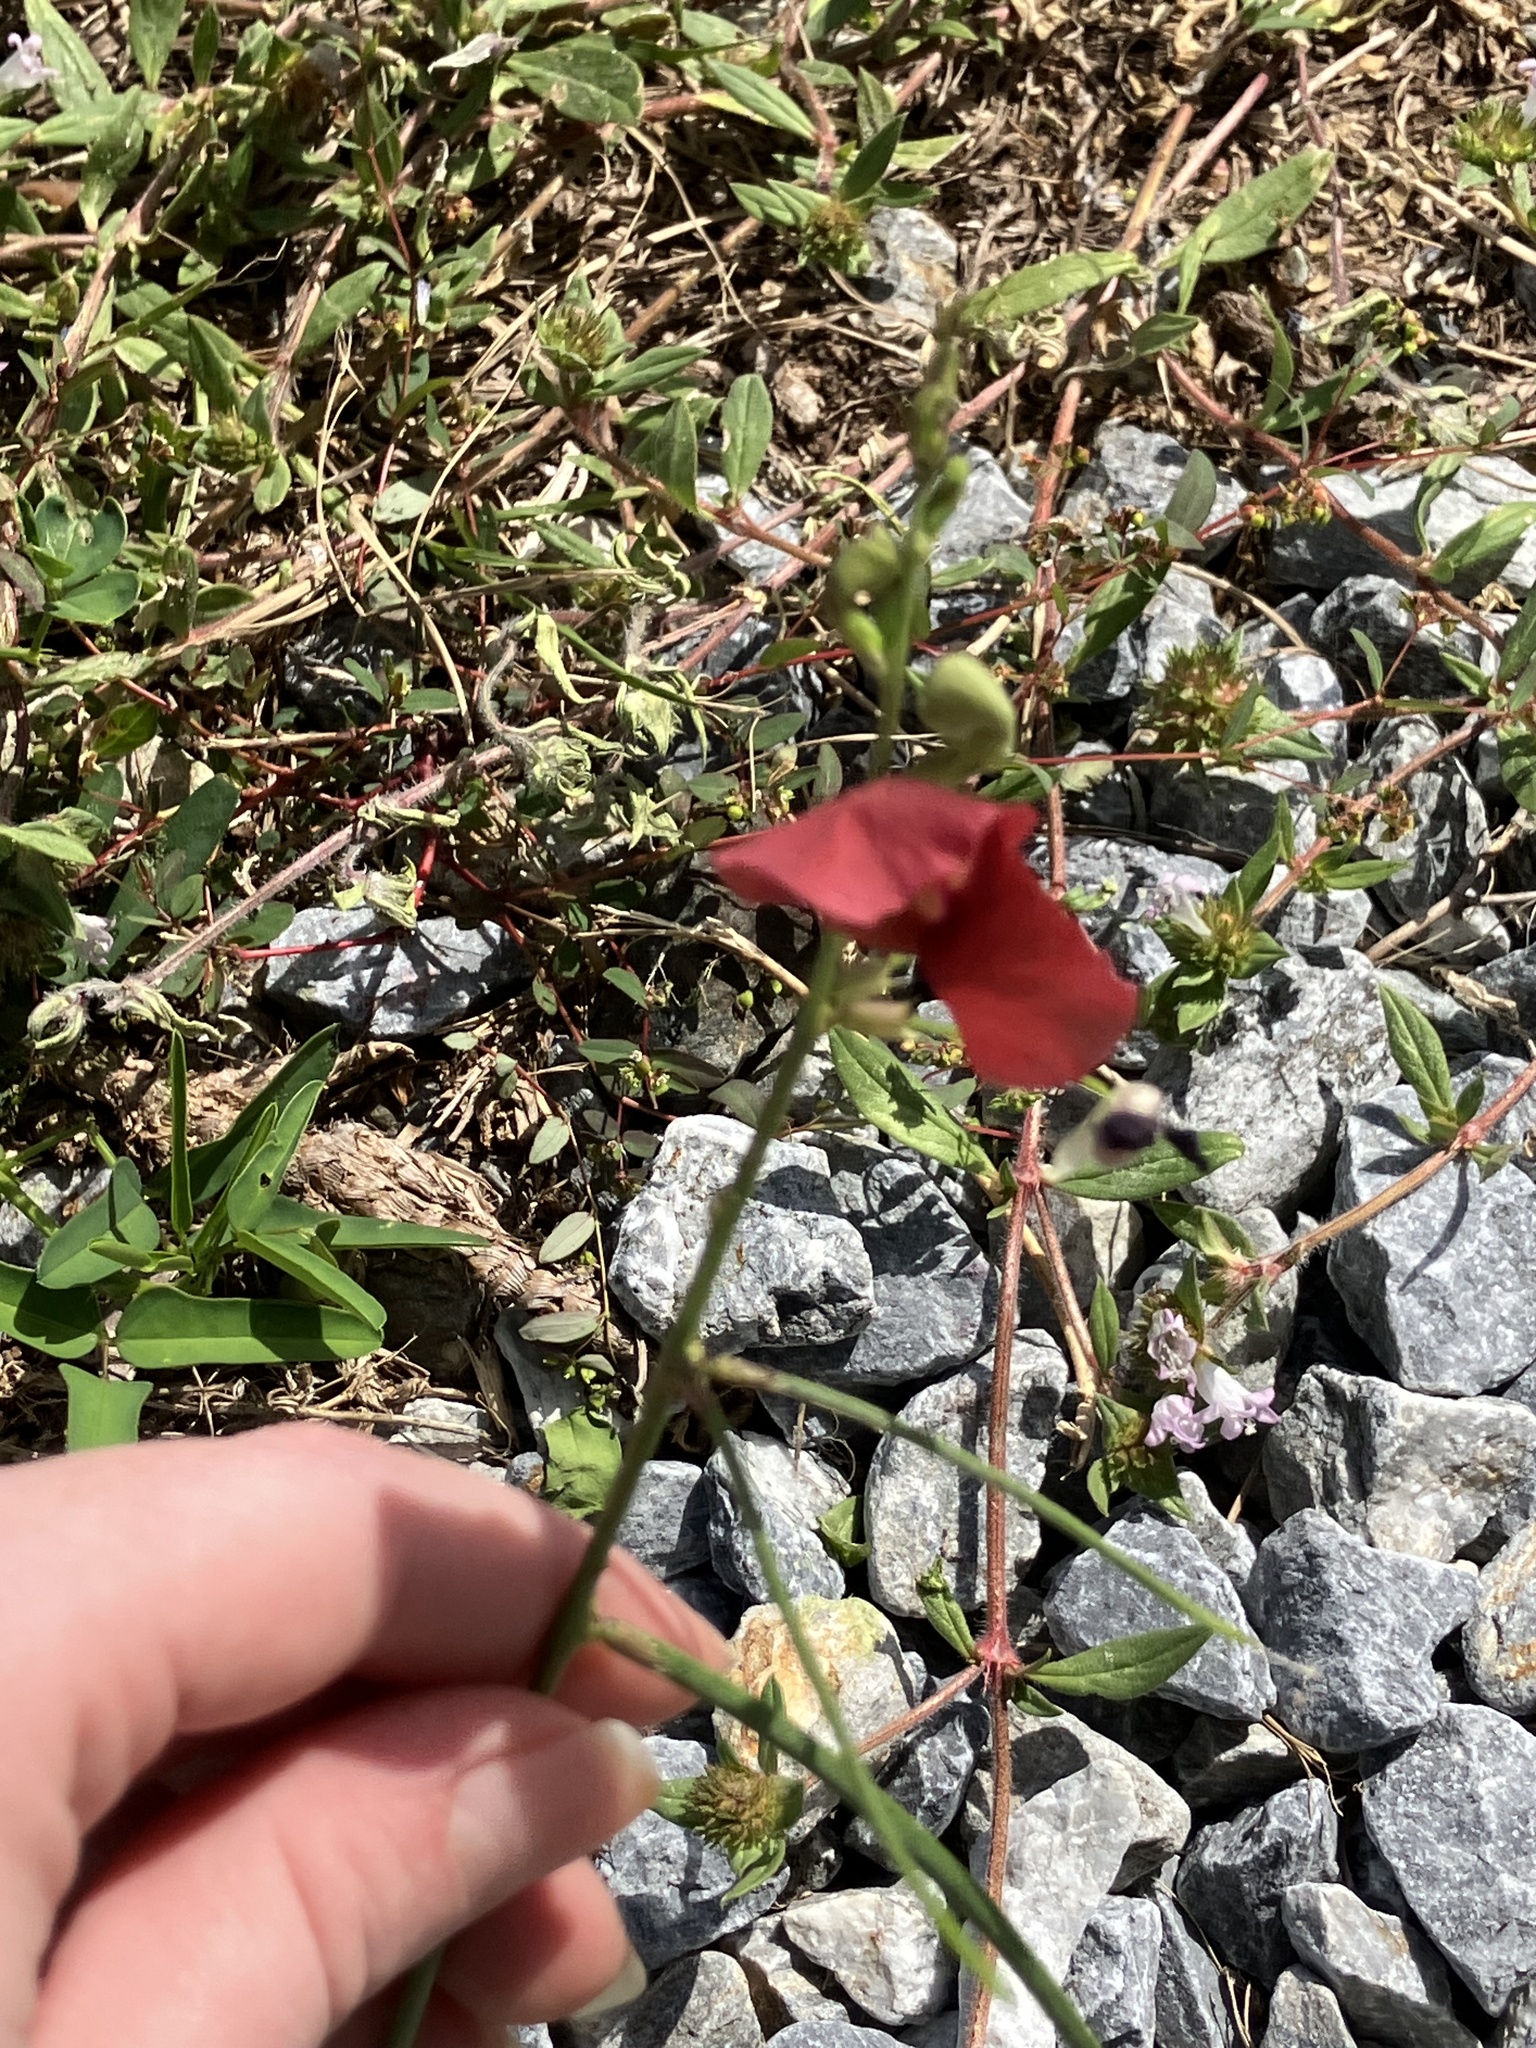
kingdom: Plantae
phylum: Tracheophyta
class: Magnoliopsida
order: Fabales
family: Fabaceae
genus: Macroptilium
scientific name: Macroptilium lathyroides
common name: Wild bushbean
